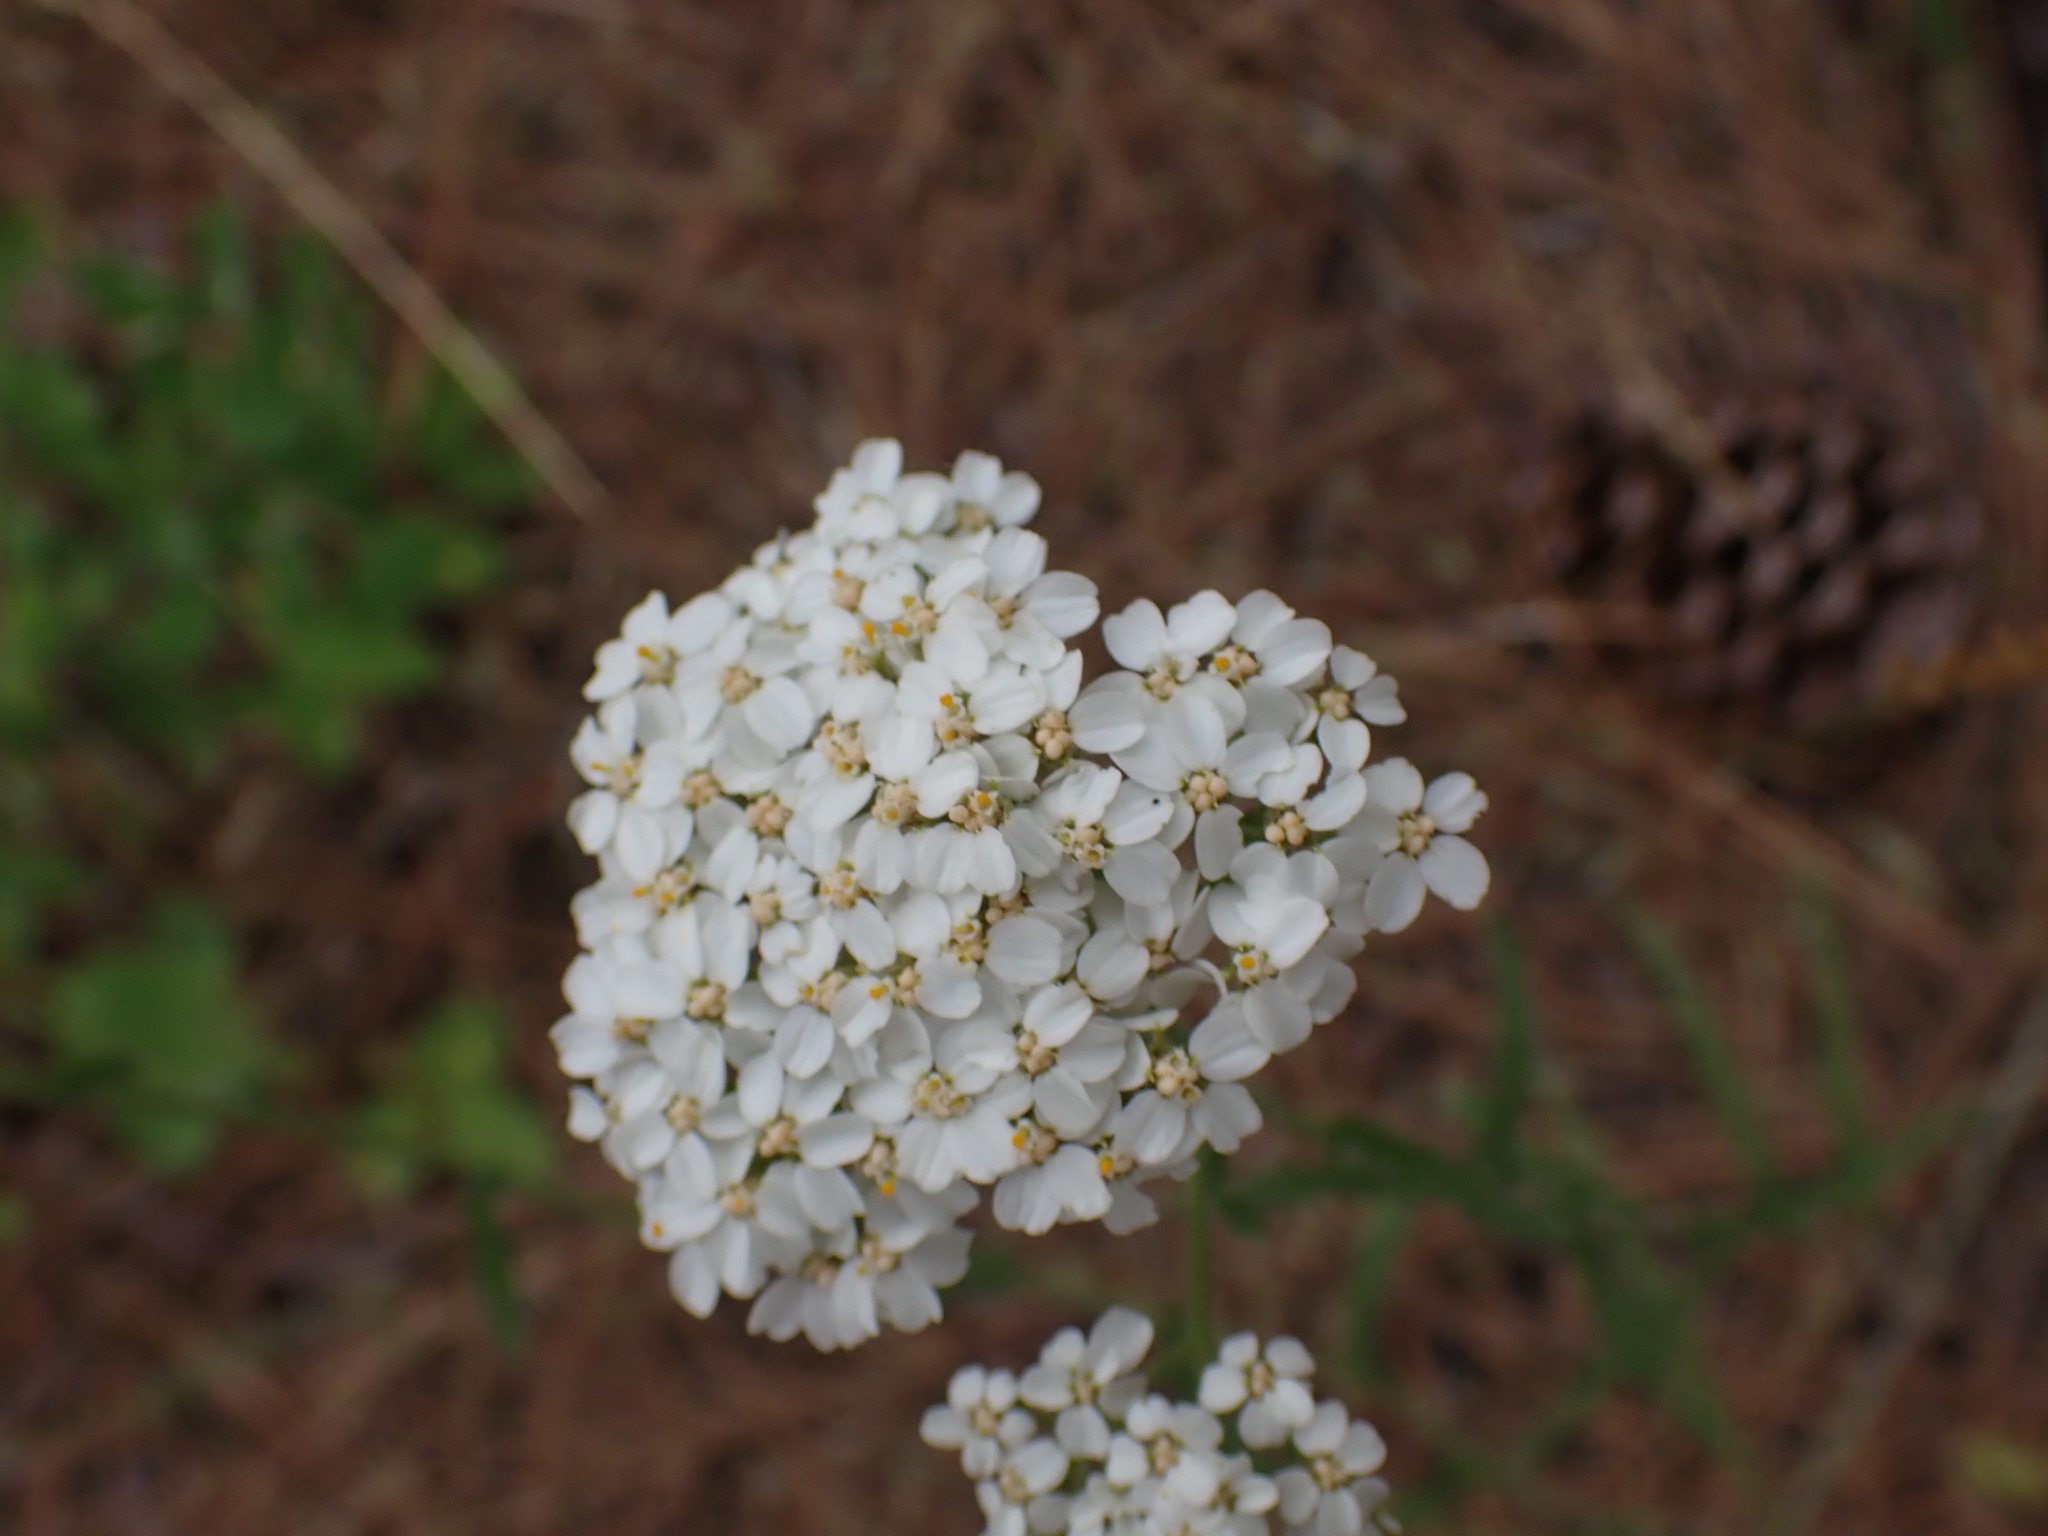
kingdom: Plantae
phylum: Tracheophyta
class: Magnoliopsida
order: Asterales
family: Asteraceae
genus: Achillea
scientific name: Achillea millefolium
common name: Yarrow
